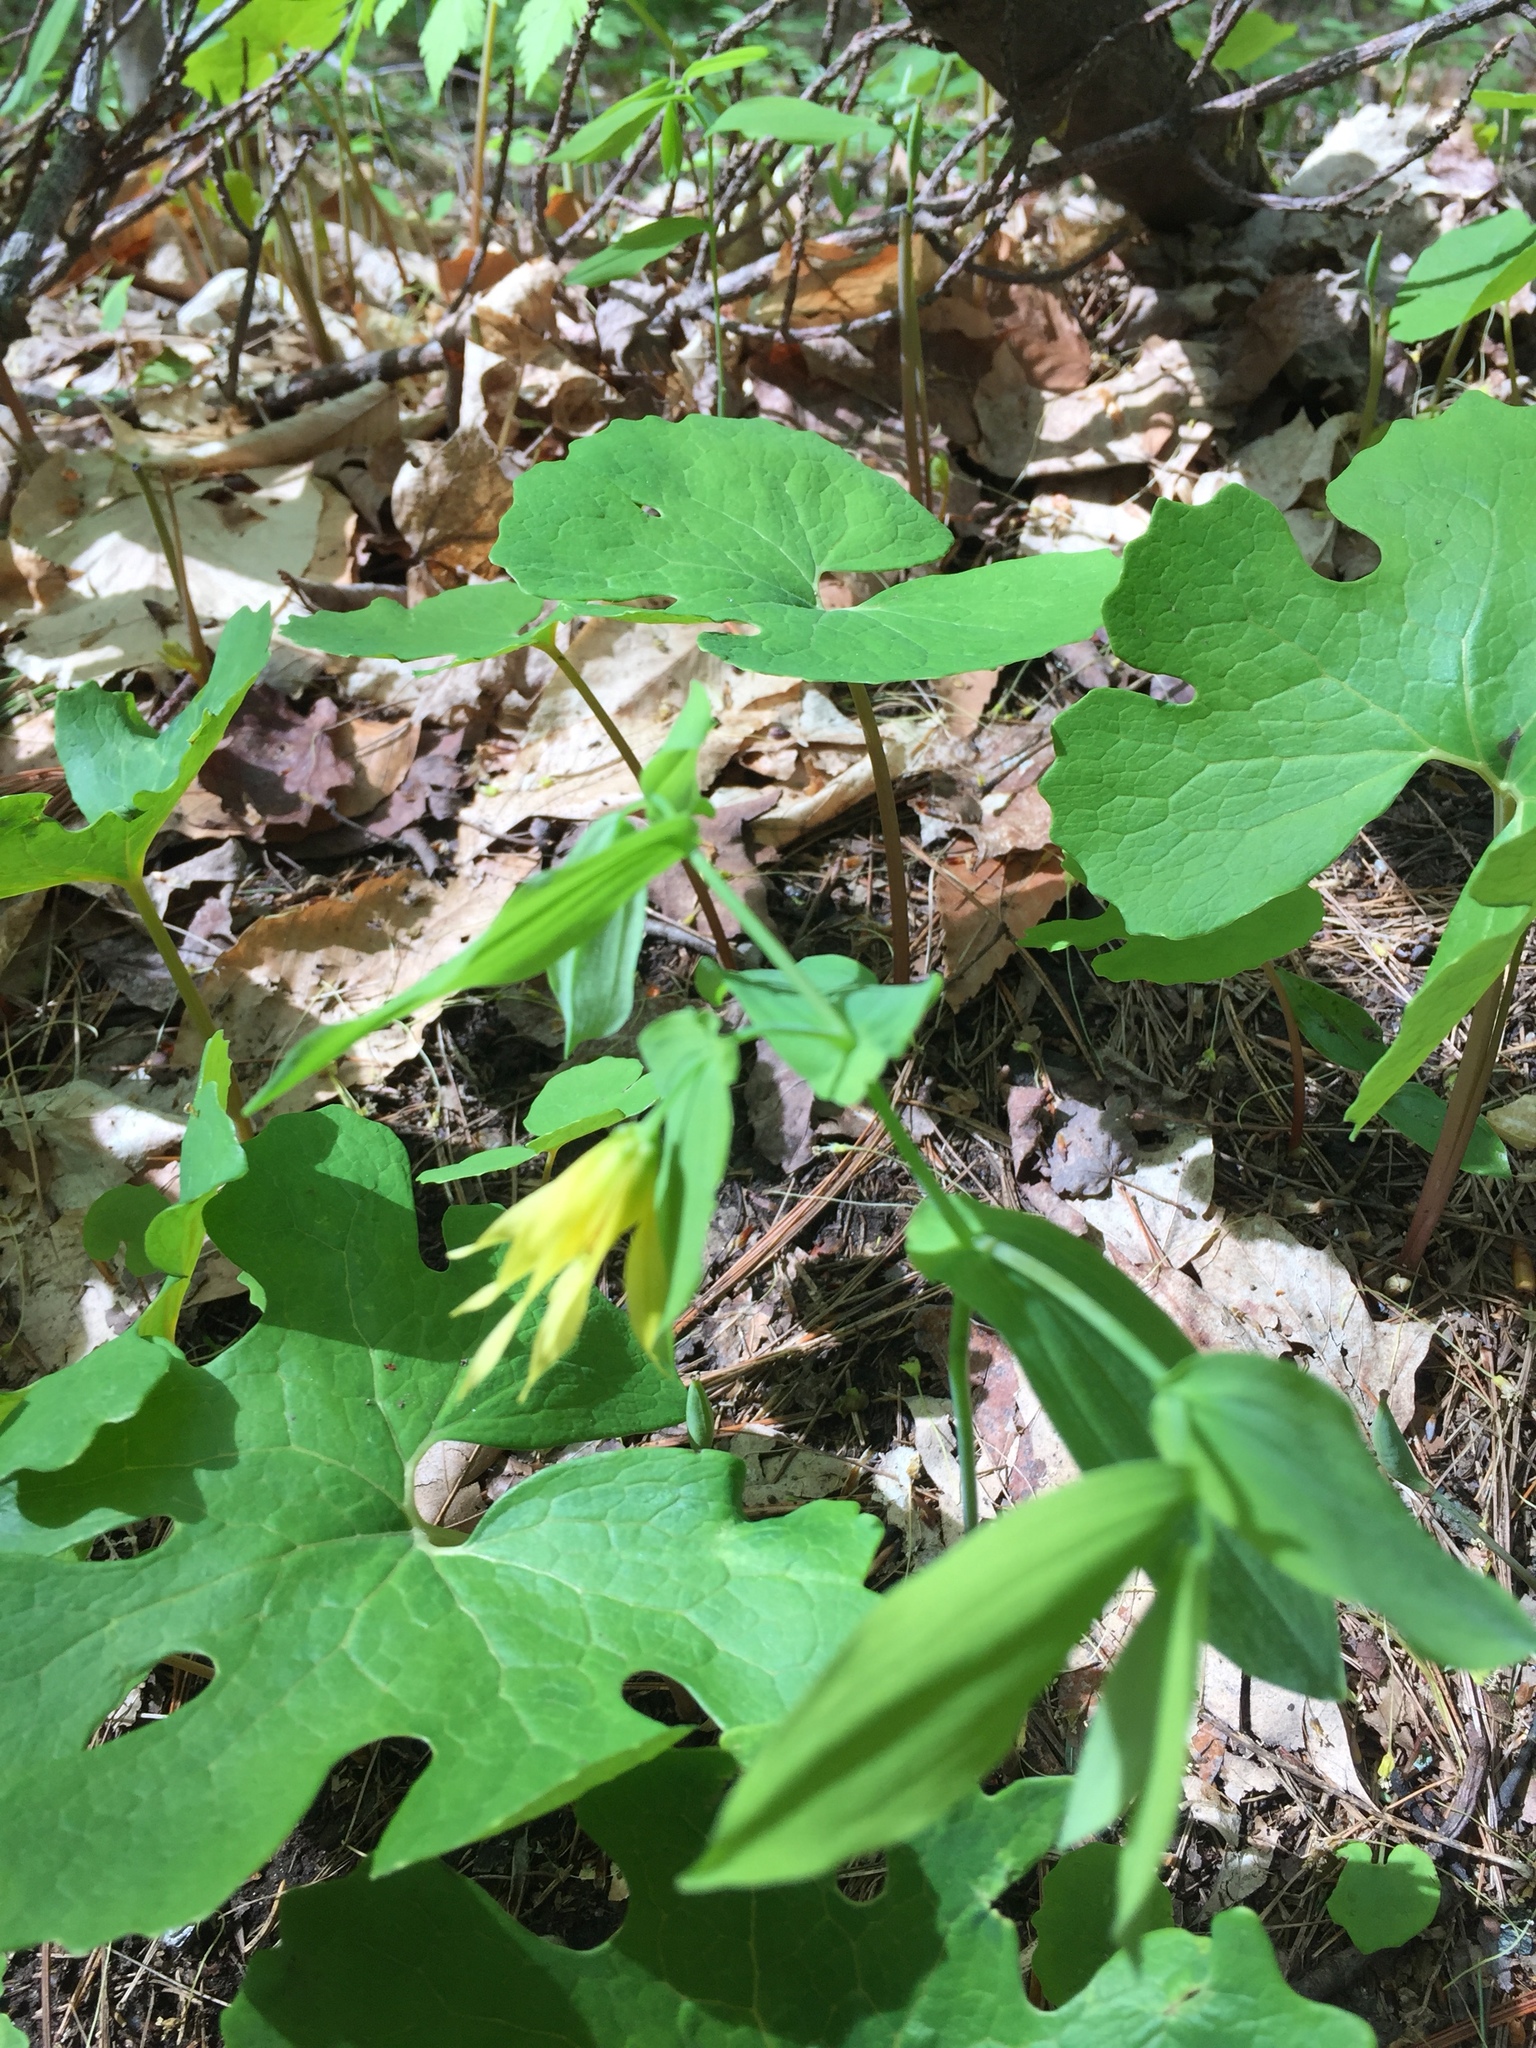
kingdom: Plantae
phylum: Tracheophyta
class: Liliopsida
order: Liliales
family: Colchicaceae
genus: Uvularia
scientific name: Uvularia grandiflora
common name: Bellwort
